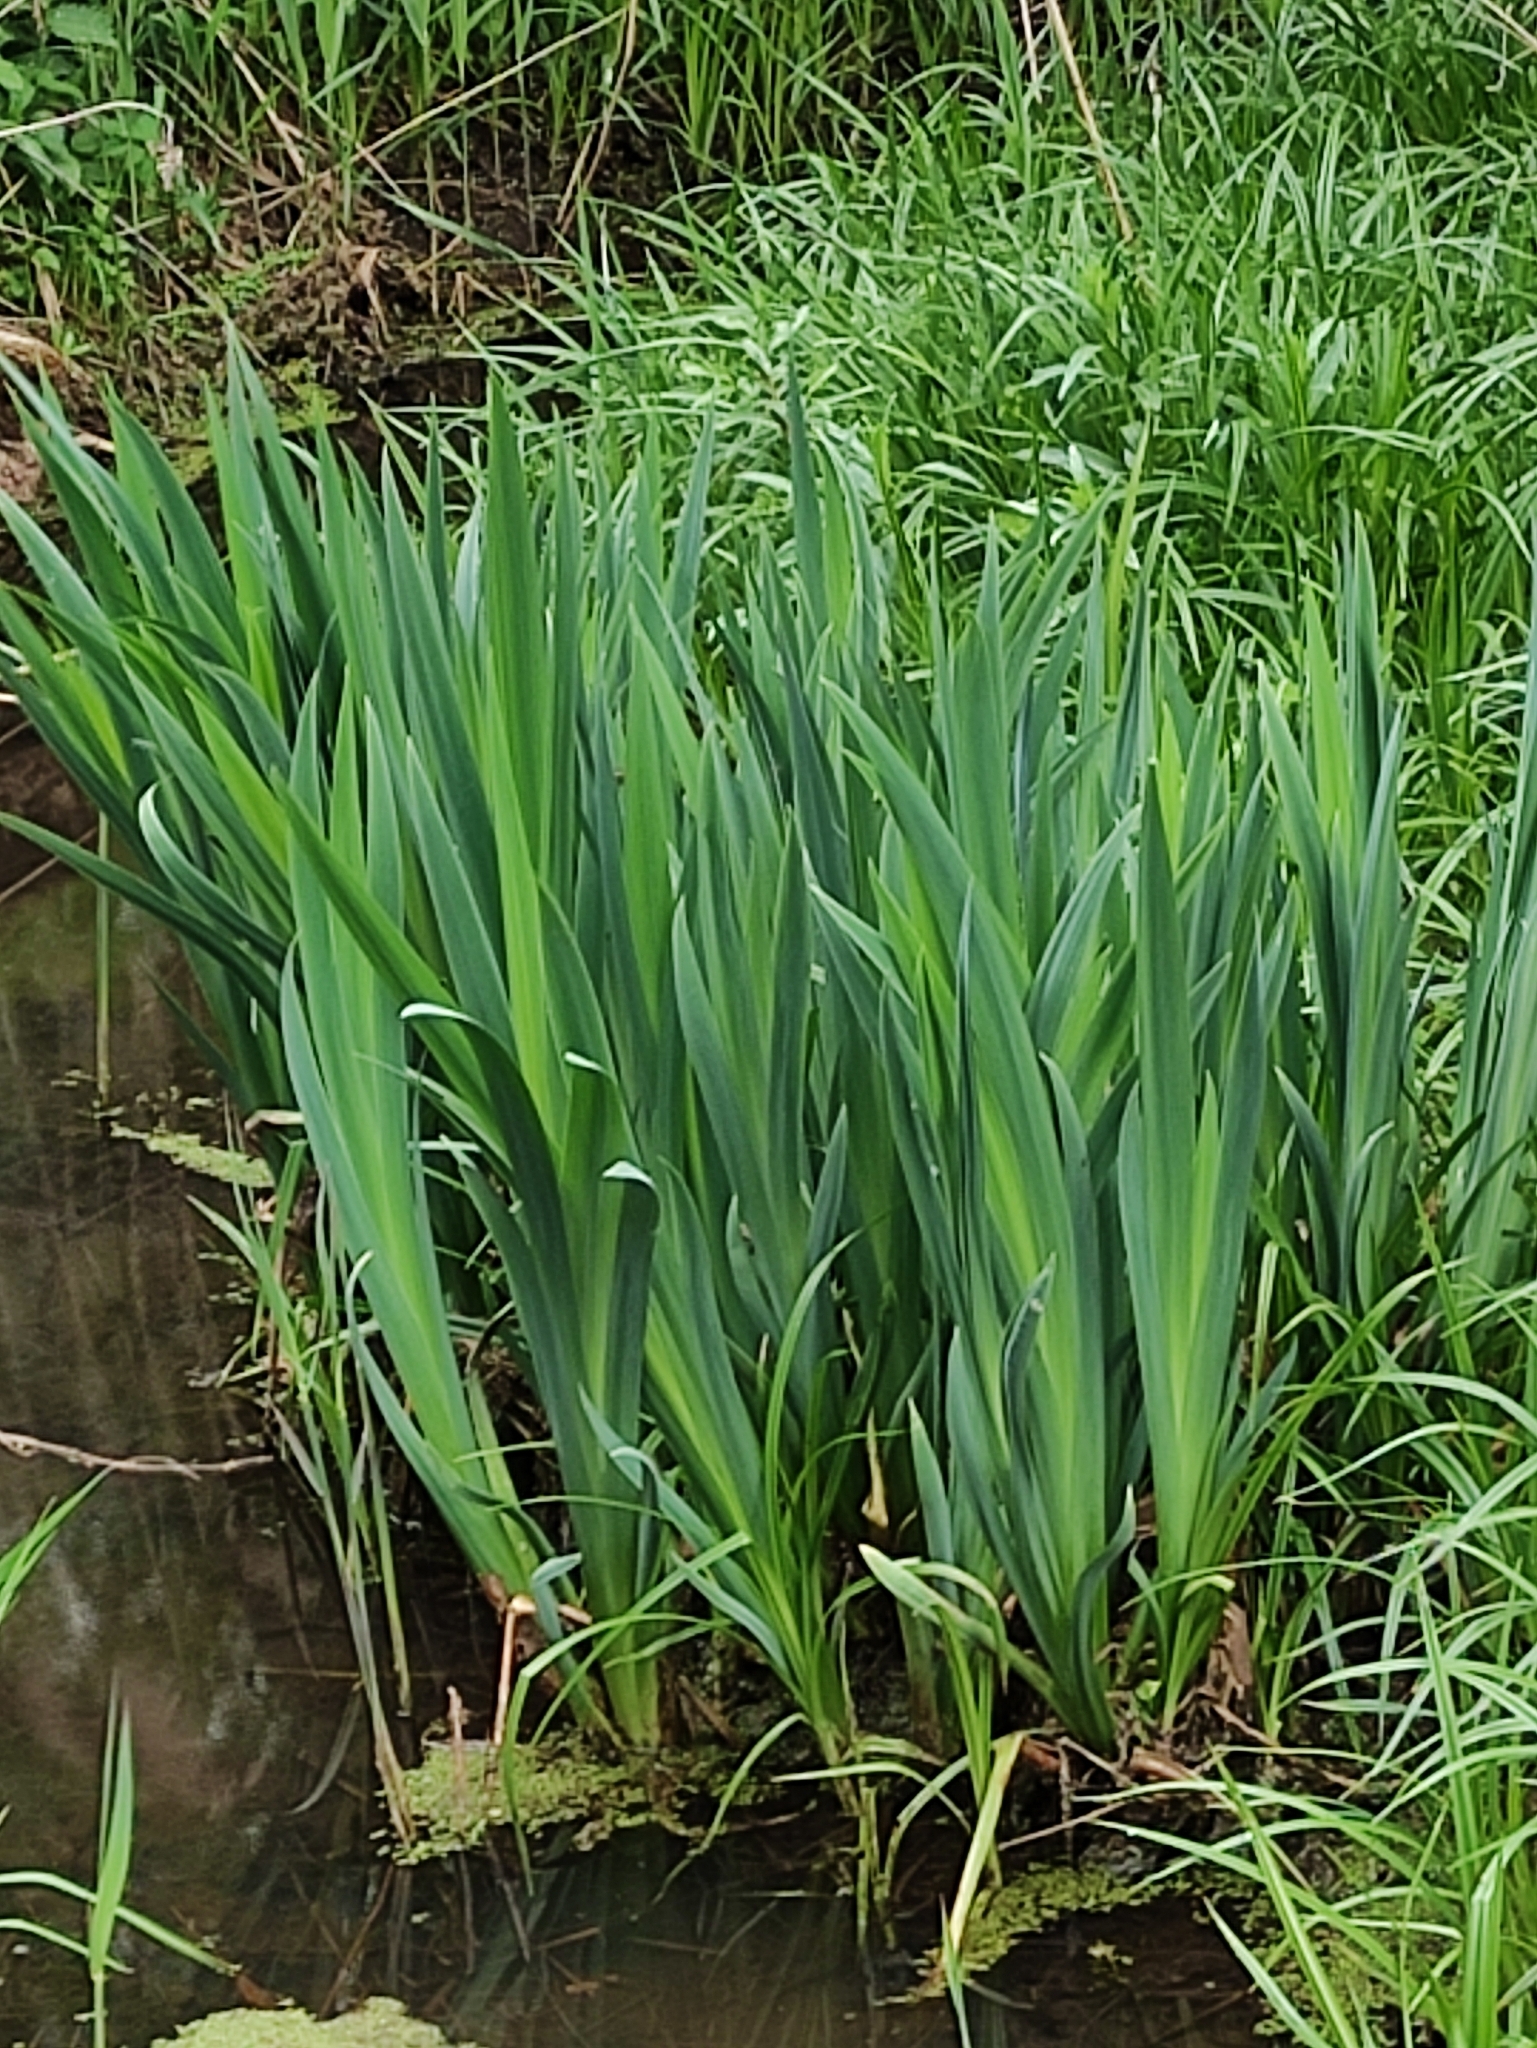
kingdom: Plantae
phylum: Tracheophyta
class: Liliopsida
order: Asparagales
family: Iridaceae
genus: Iris
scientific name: Iris pseudacorus
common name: Yellow flag
